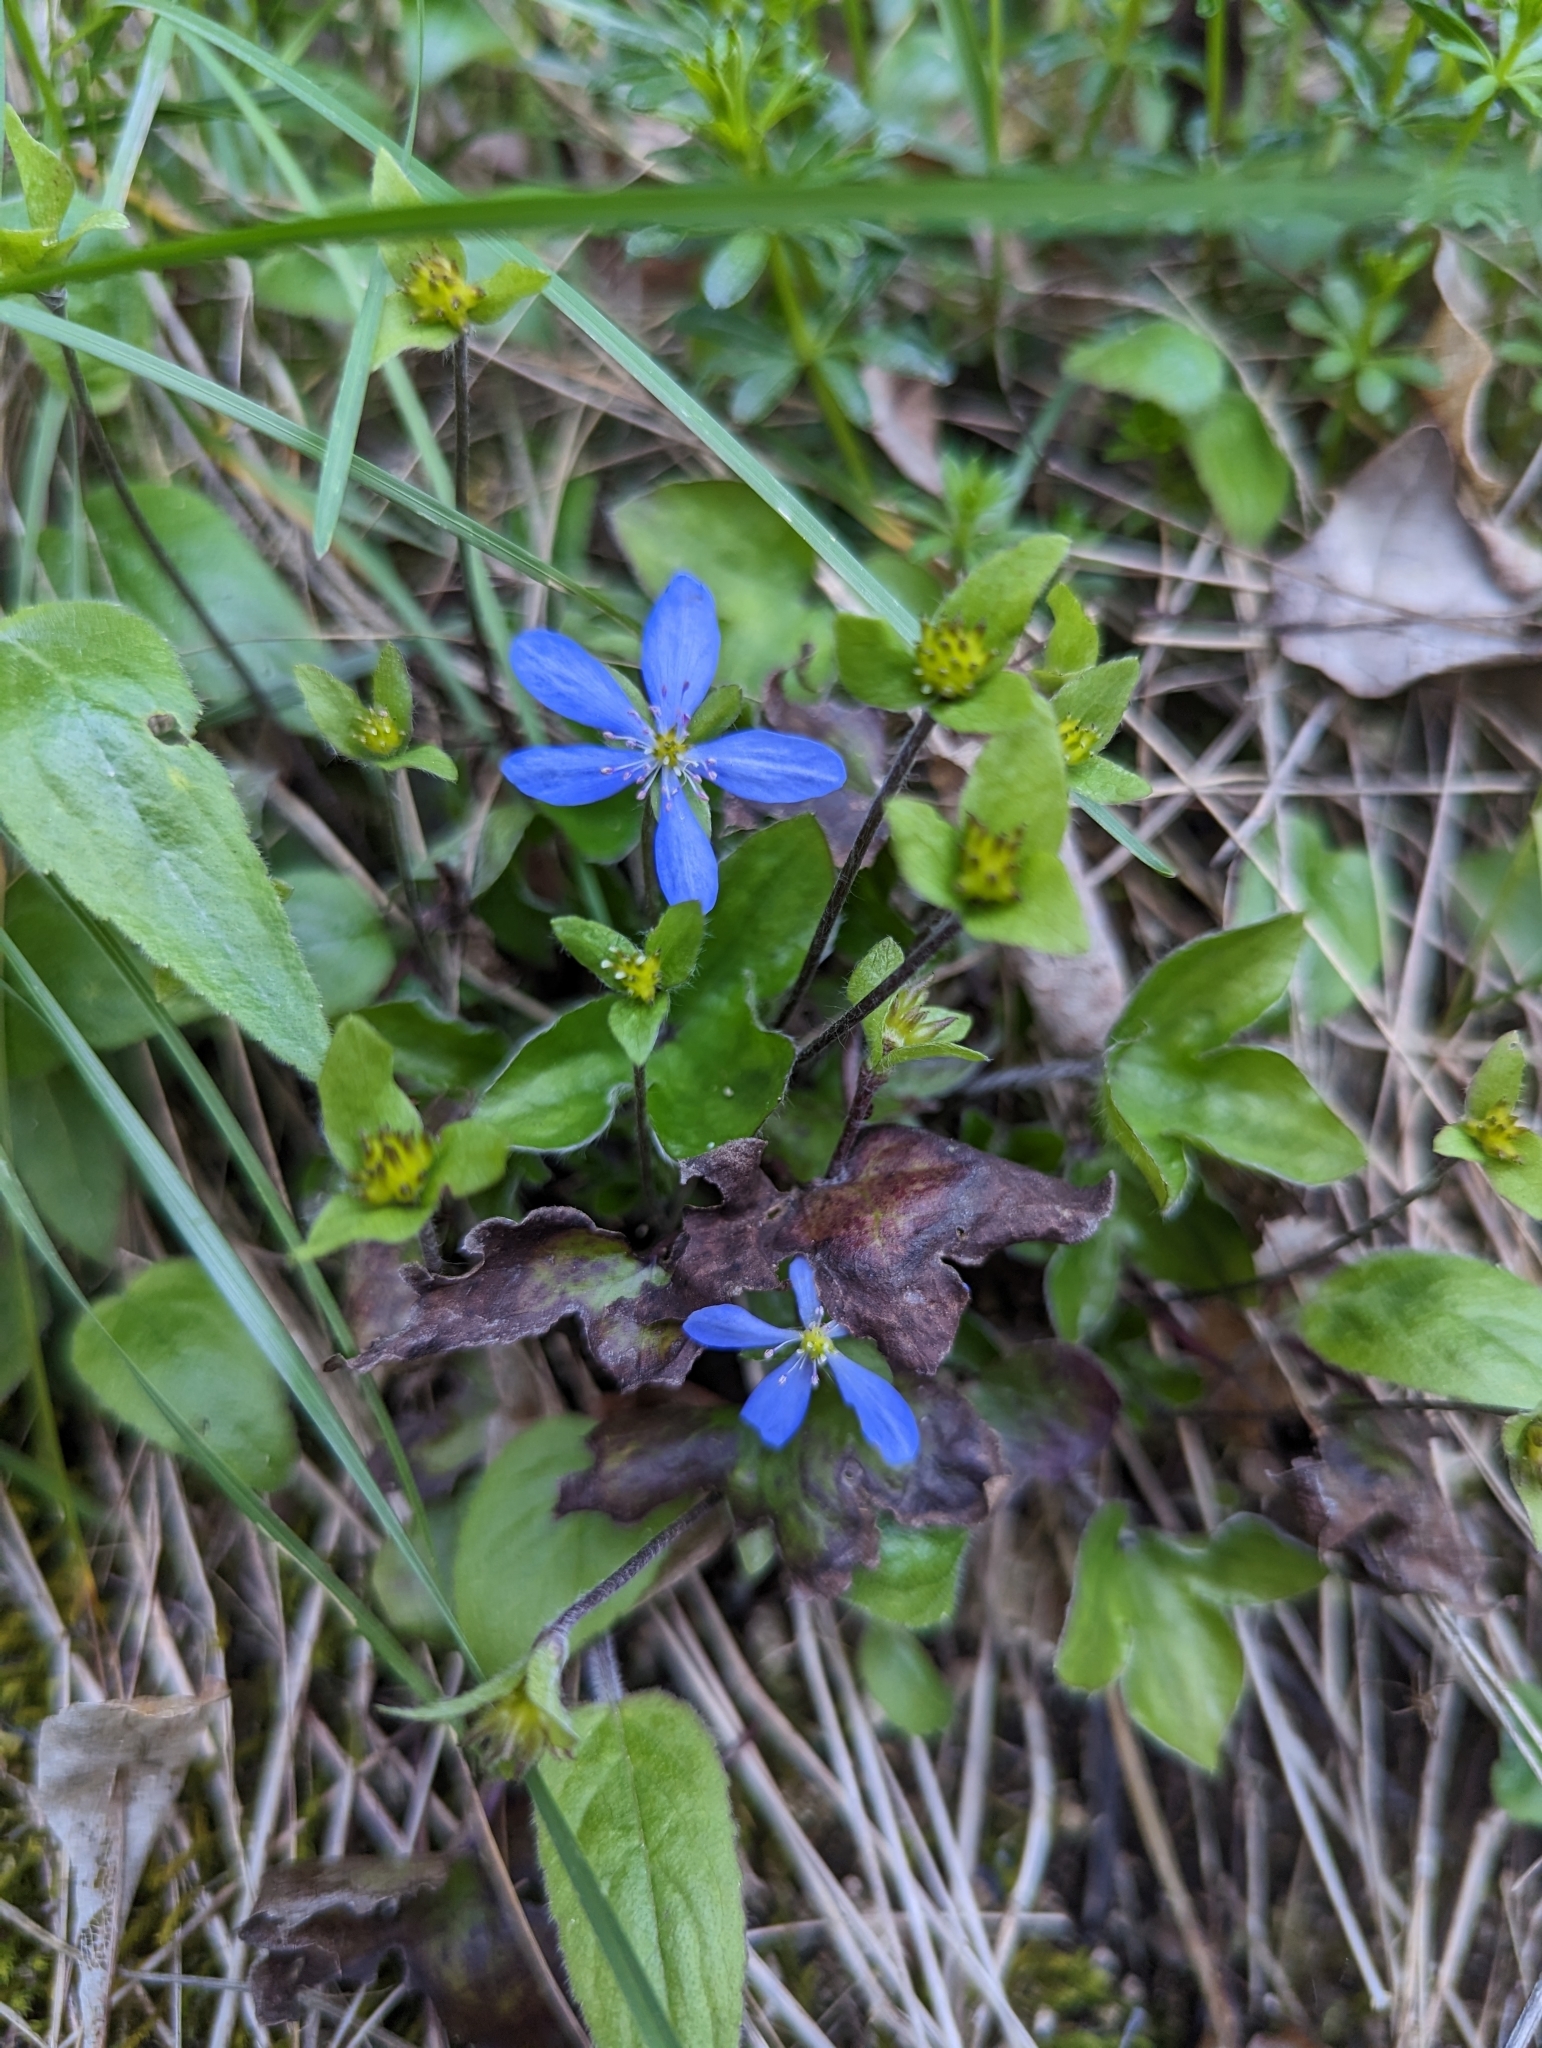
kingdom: Plantae
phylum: Tracheophyta
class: Magnoliopsida
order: Ranunculales
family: Ranunculaceae
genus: Hepatica
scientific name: Hepatica nobilis
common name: Liverleaf
